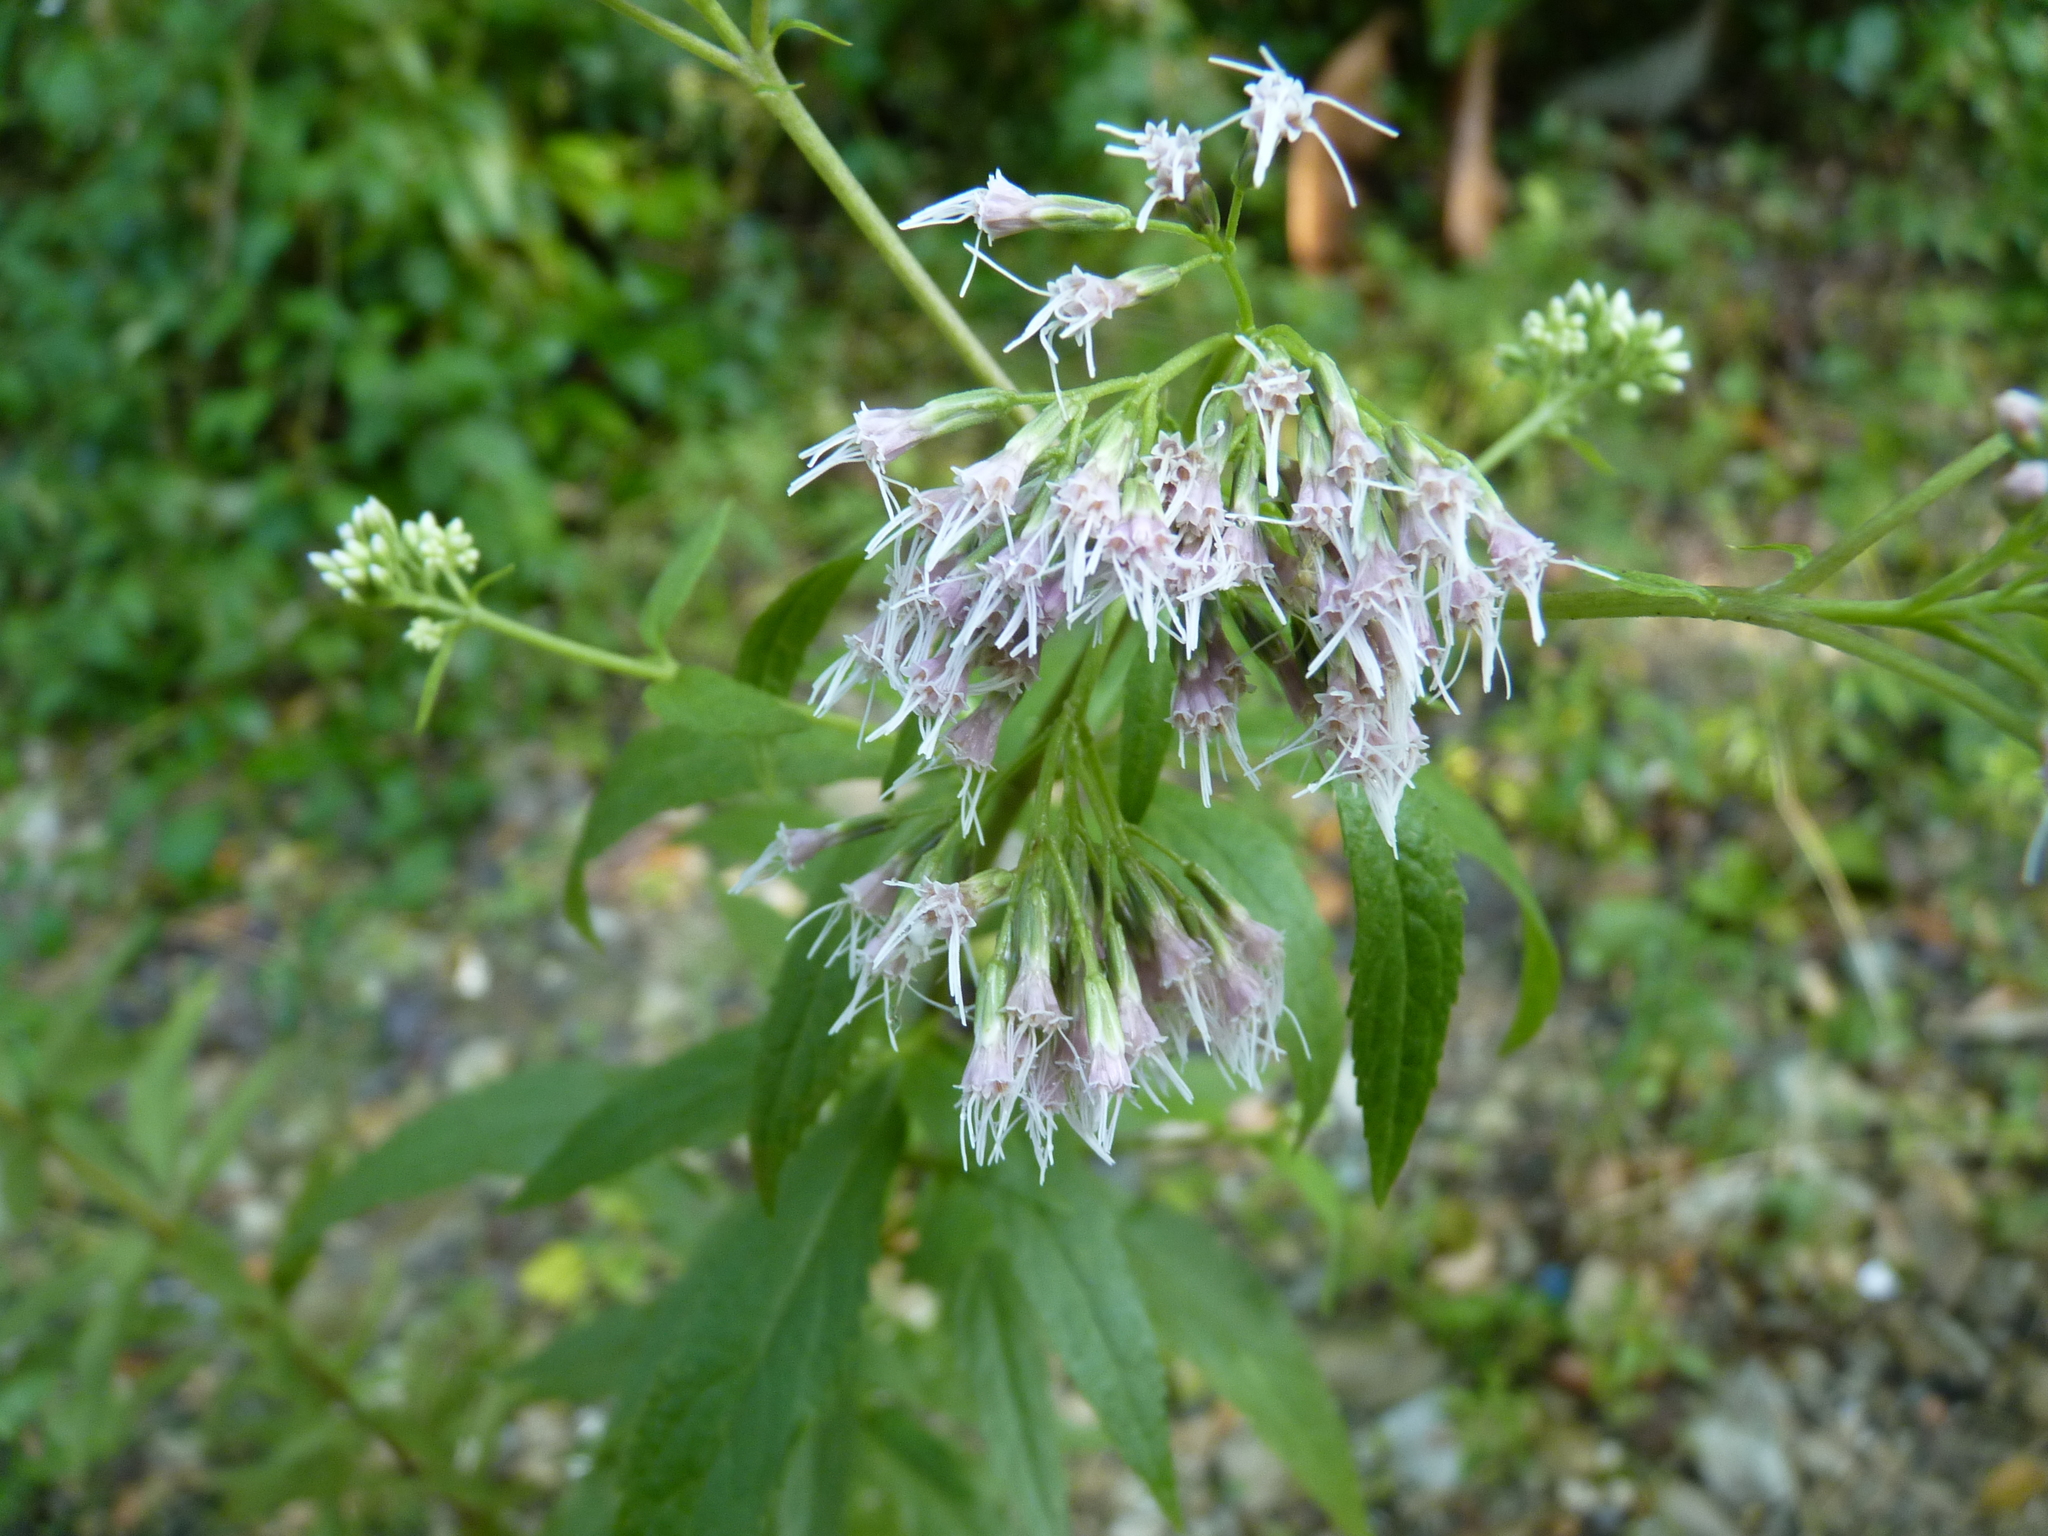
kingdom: Plantae
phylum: Tracheophyta
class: Magnoliopsida
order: Asterales
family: Asteraceae
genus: Eupatorium
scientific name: Eupatorium cannabinum
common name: Hemp-agrimony
